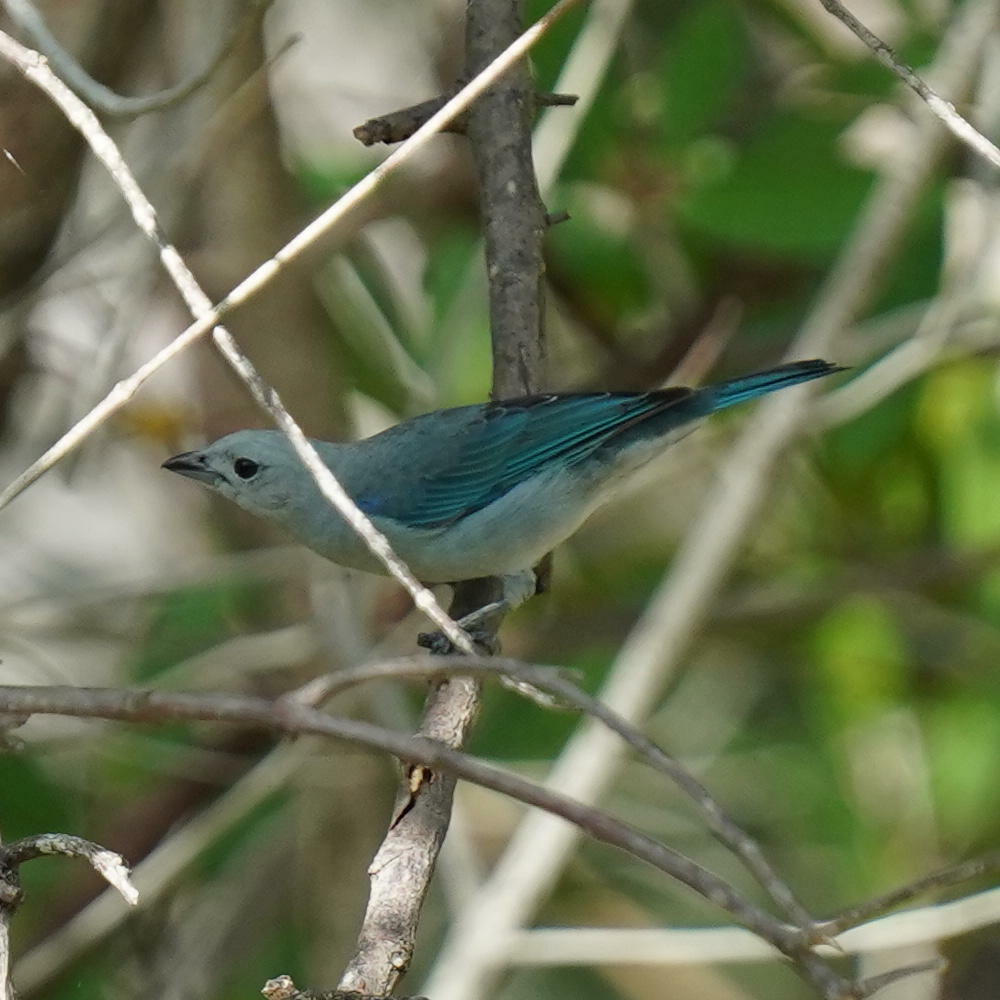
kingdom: Animalia
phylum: Chordata
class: Aves
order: Passeriformes
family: Thraupidae
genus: Thraupis
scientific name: Thraupis episcopus
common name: Blue-grey tanager
